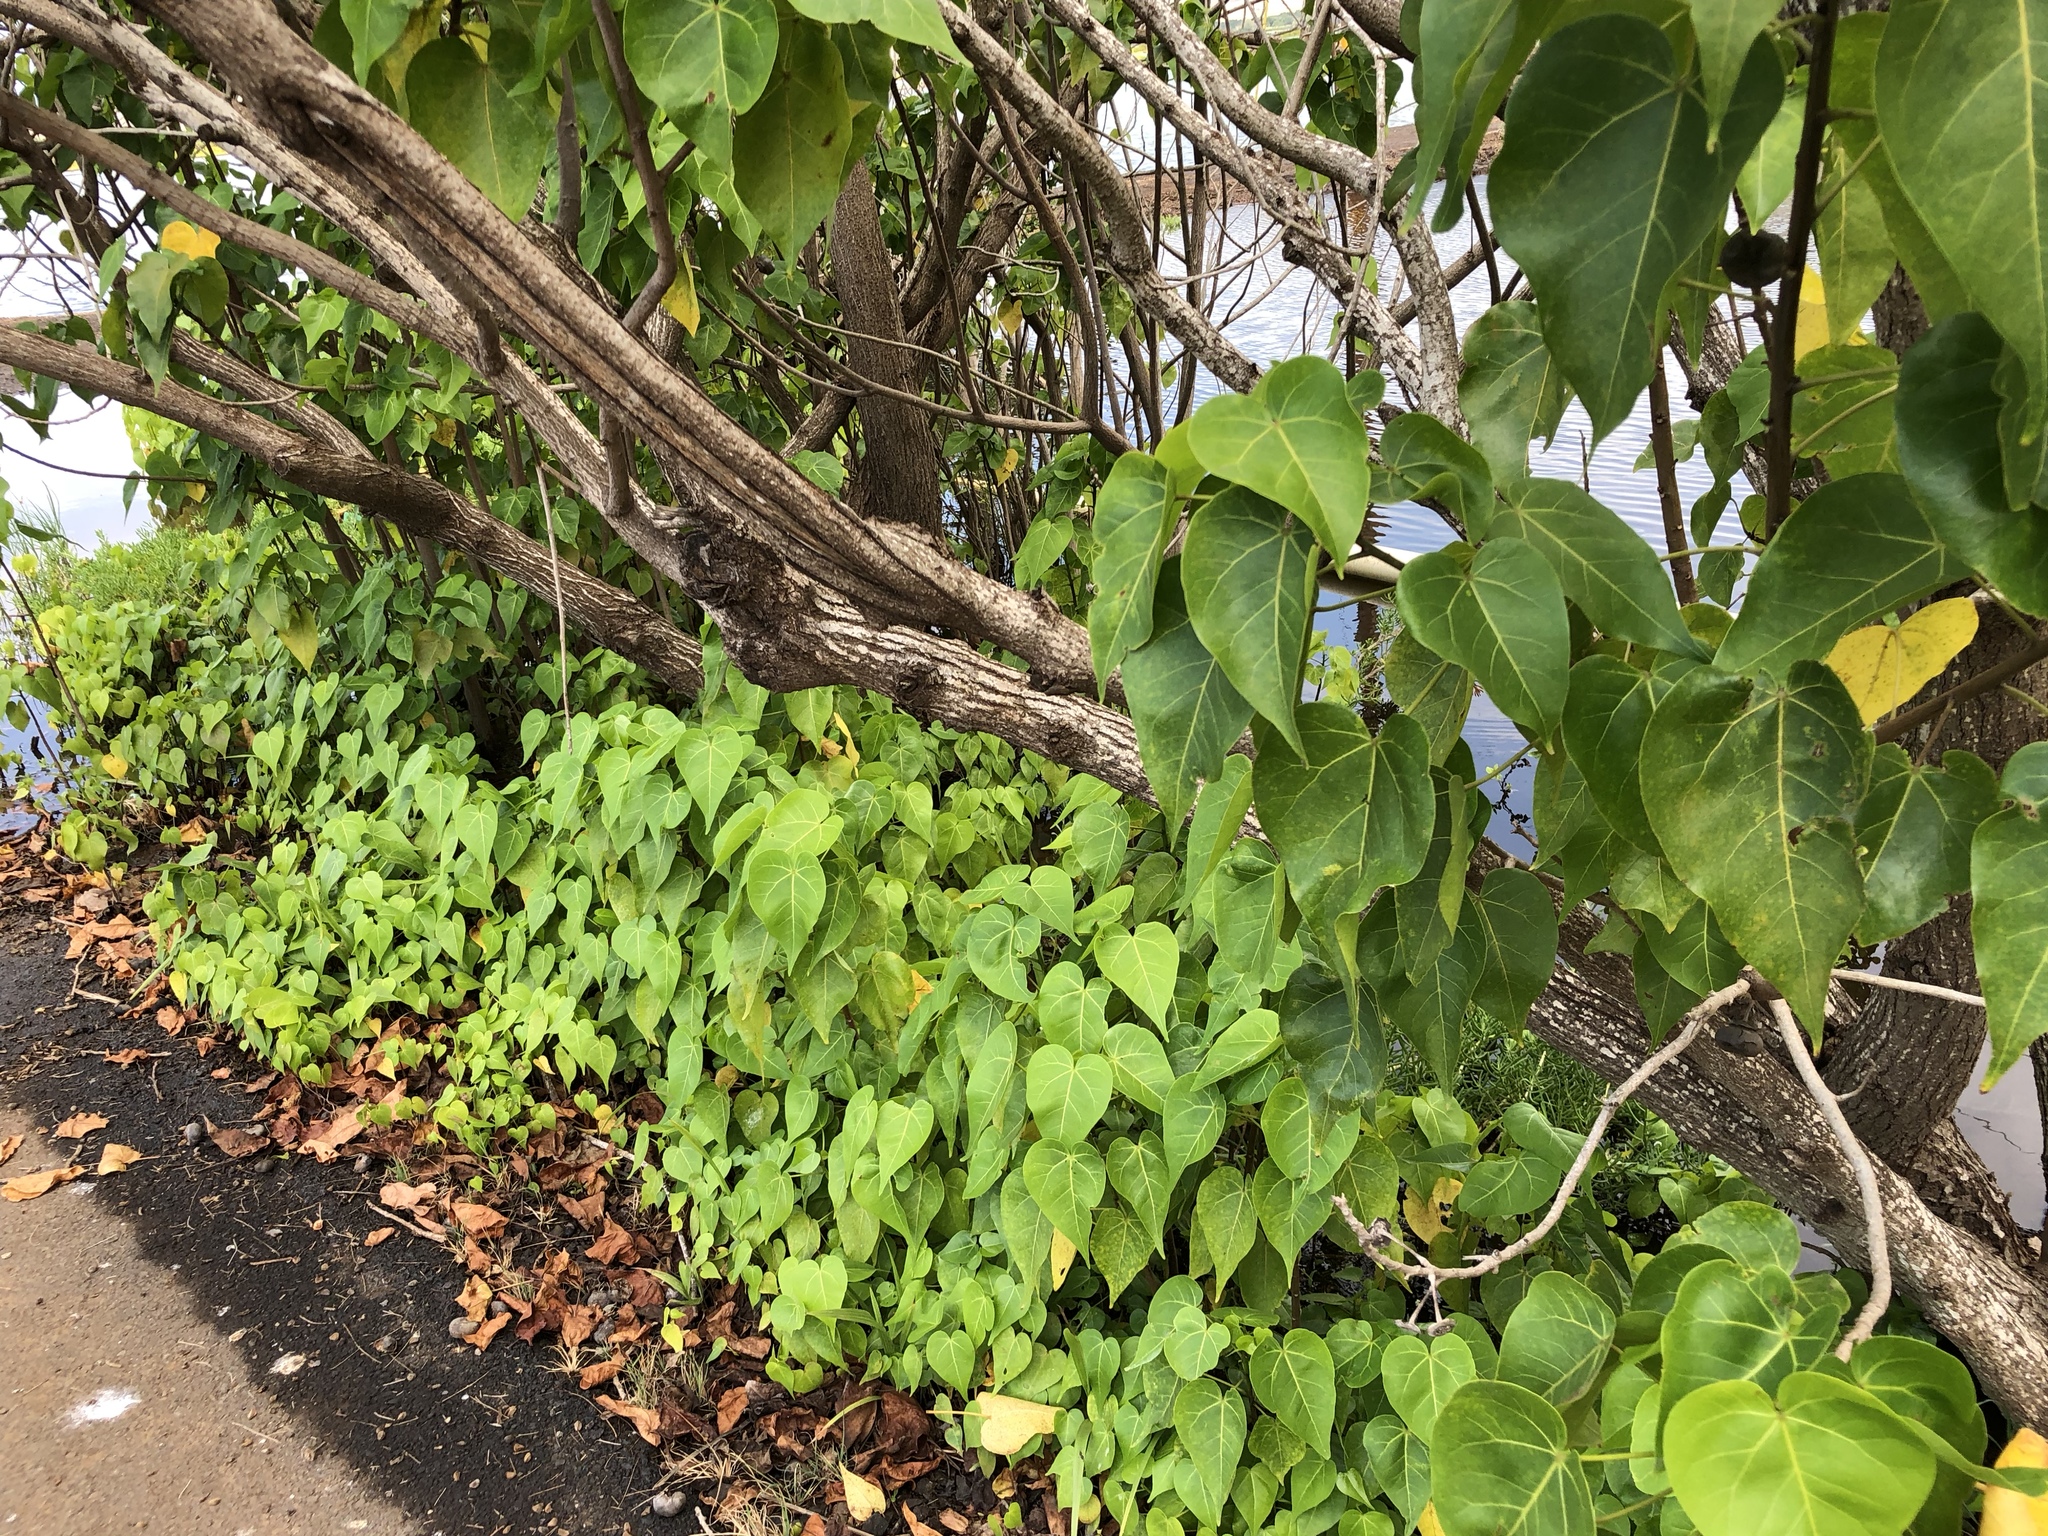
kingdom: Plantae
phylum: Tracheophyta
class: Magnoliopsida
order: Malvales
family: Malvaceae
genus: Thespesia
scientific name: Thespesia populnea
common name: Seaside mahoe
